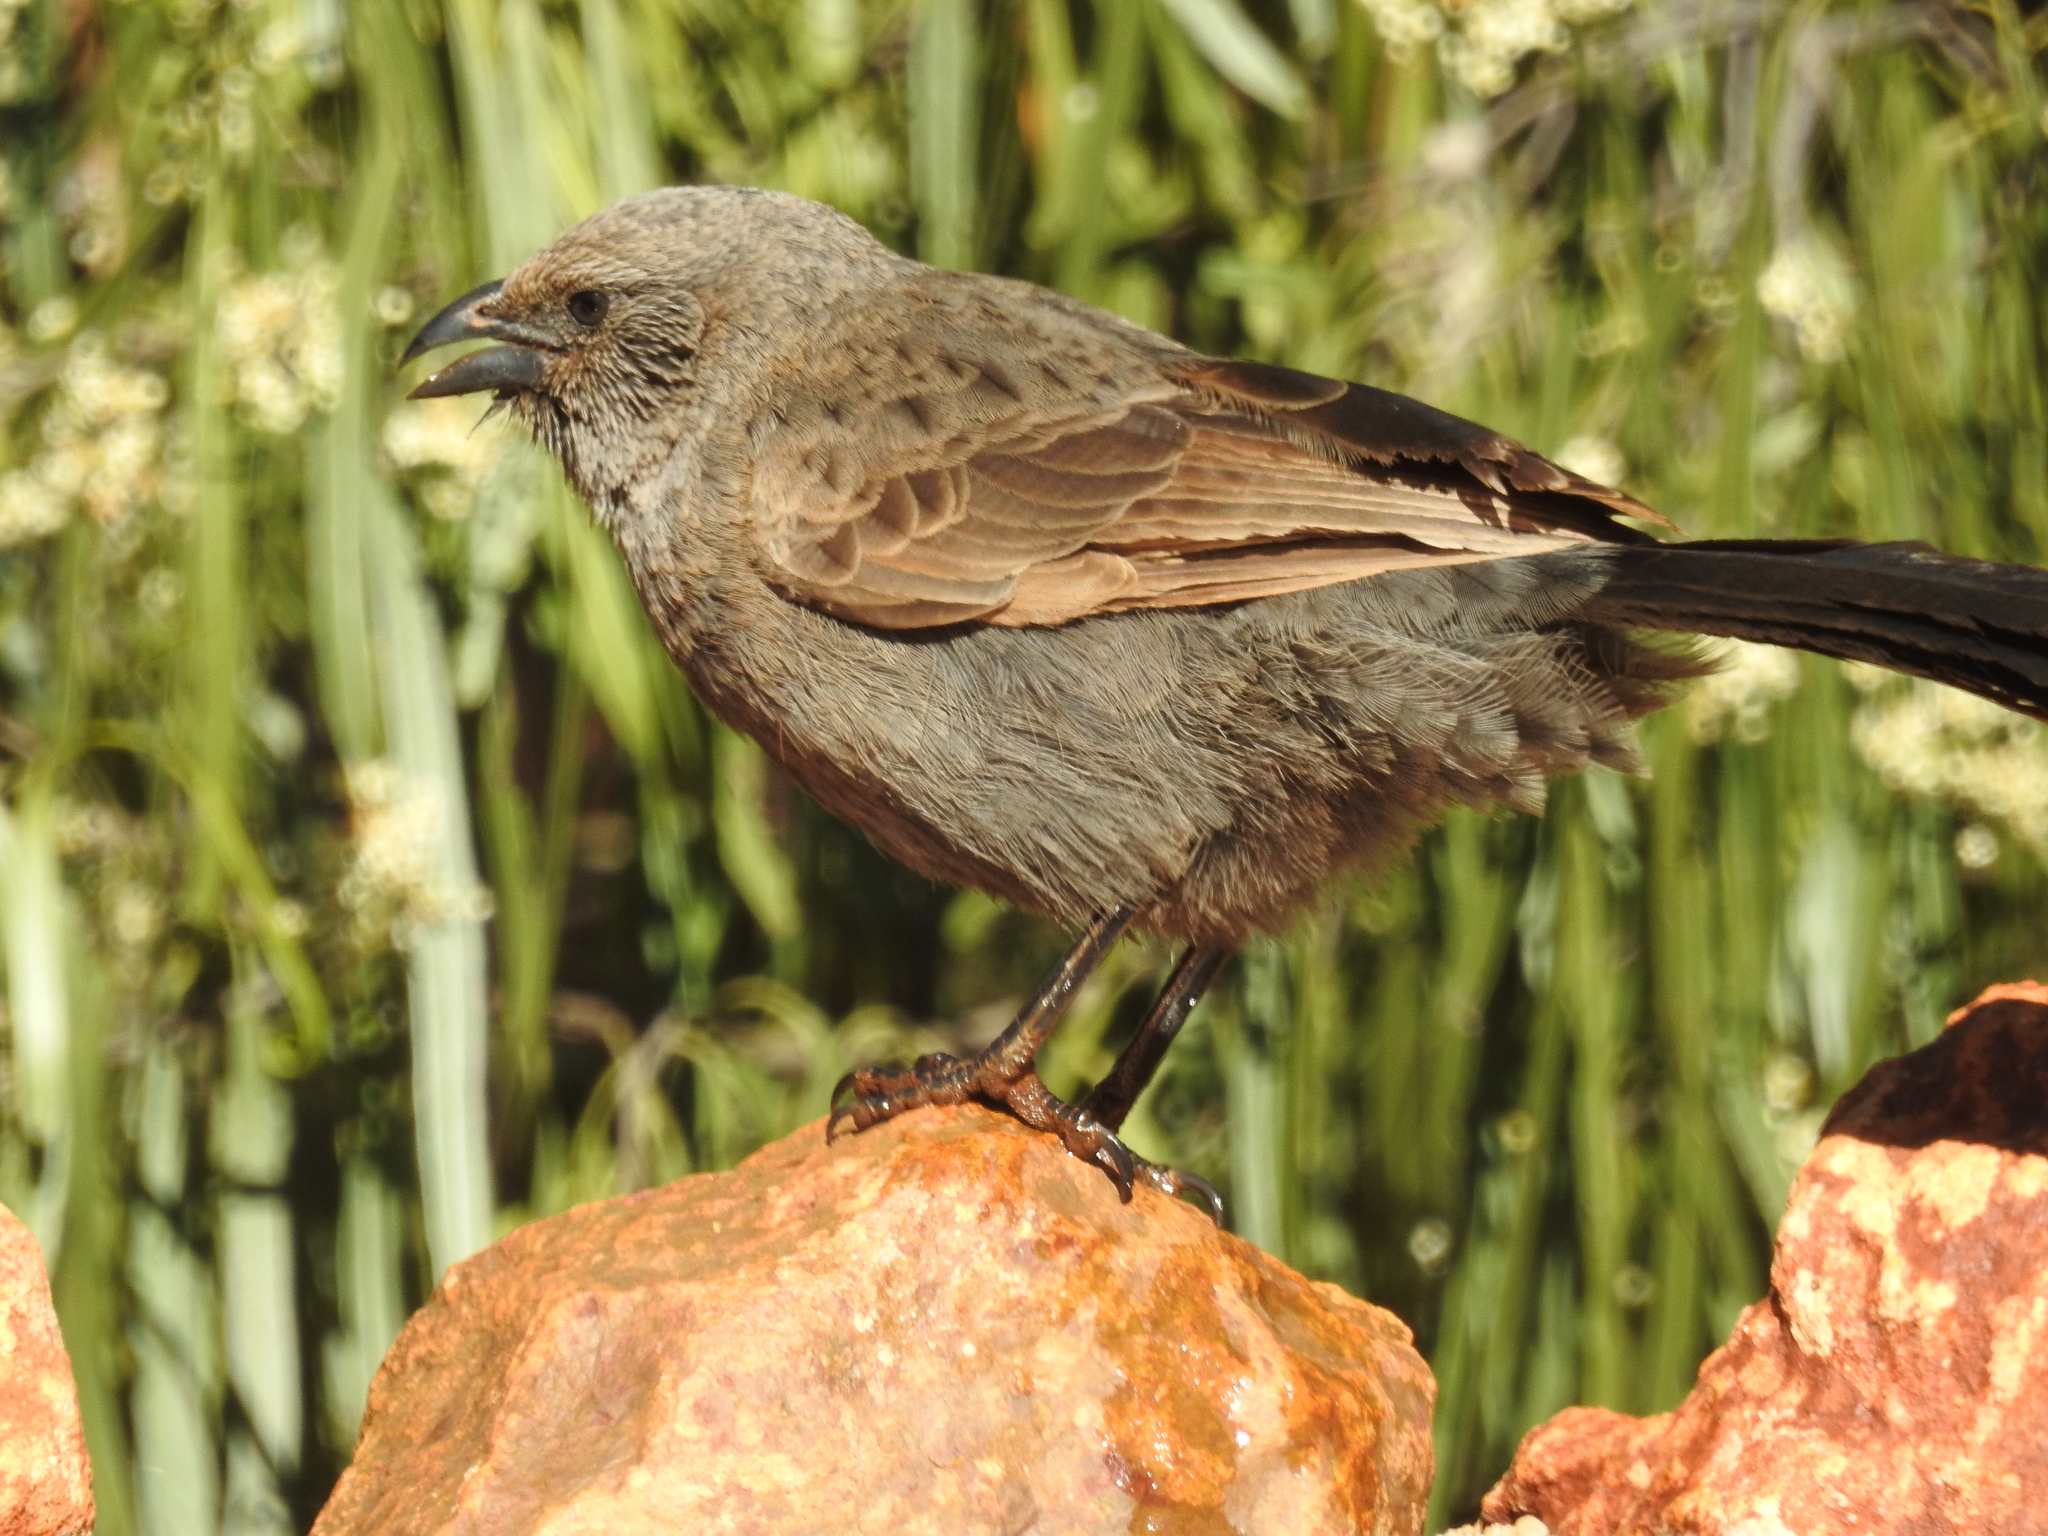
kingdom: Animalia
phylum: Chordata
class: Aves
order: Passeriformes
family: Corcoracidae
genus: Struthidea
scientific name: Struthidea cinerea
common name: Apostlebird
